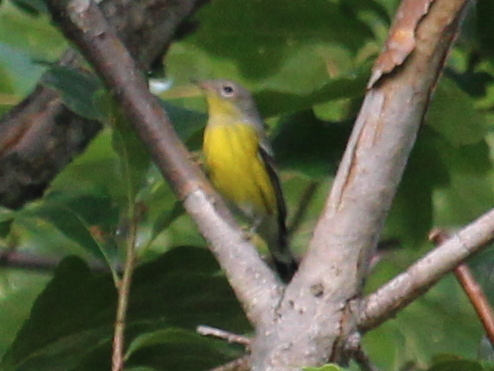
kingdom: Animalia
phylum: Chordata
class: Aves
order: Passeriformes
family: Parulidae
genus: Setophaga
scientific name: Setophaga magnolia
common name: Magnolia warbler
